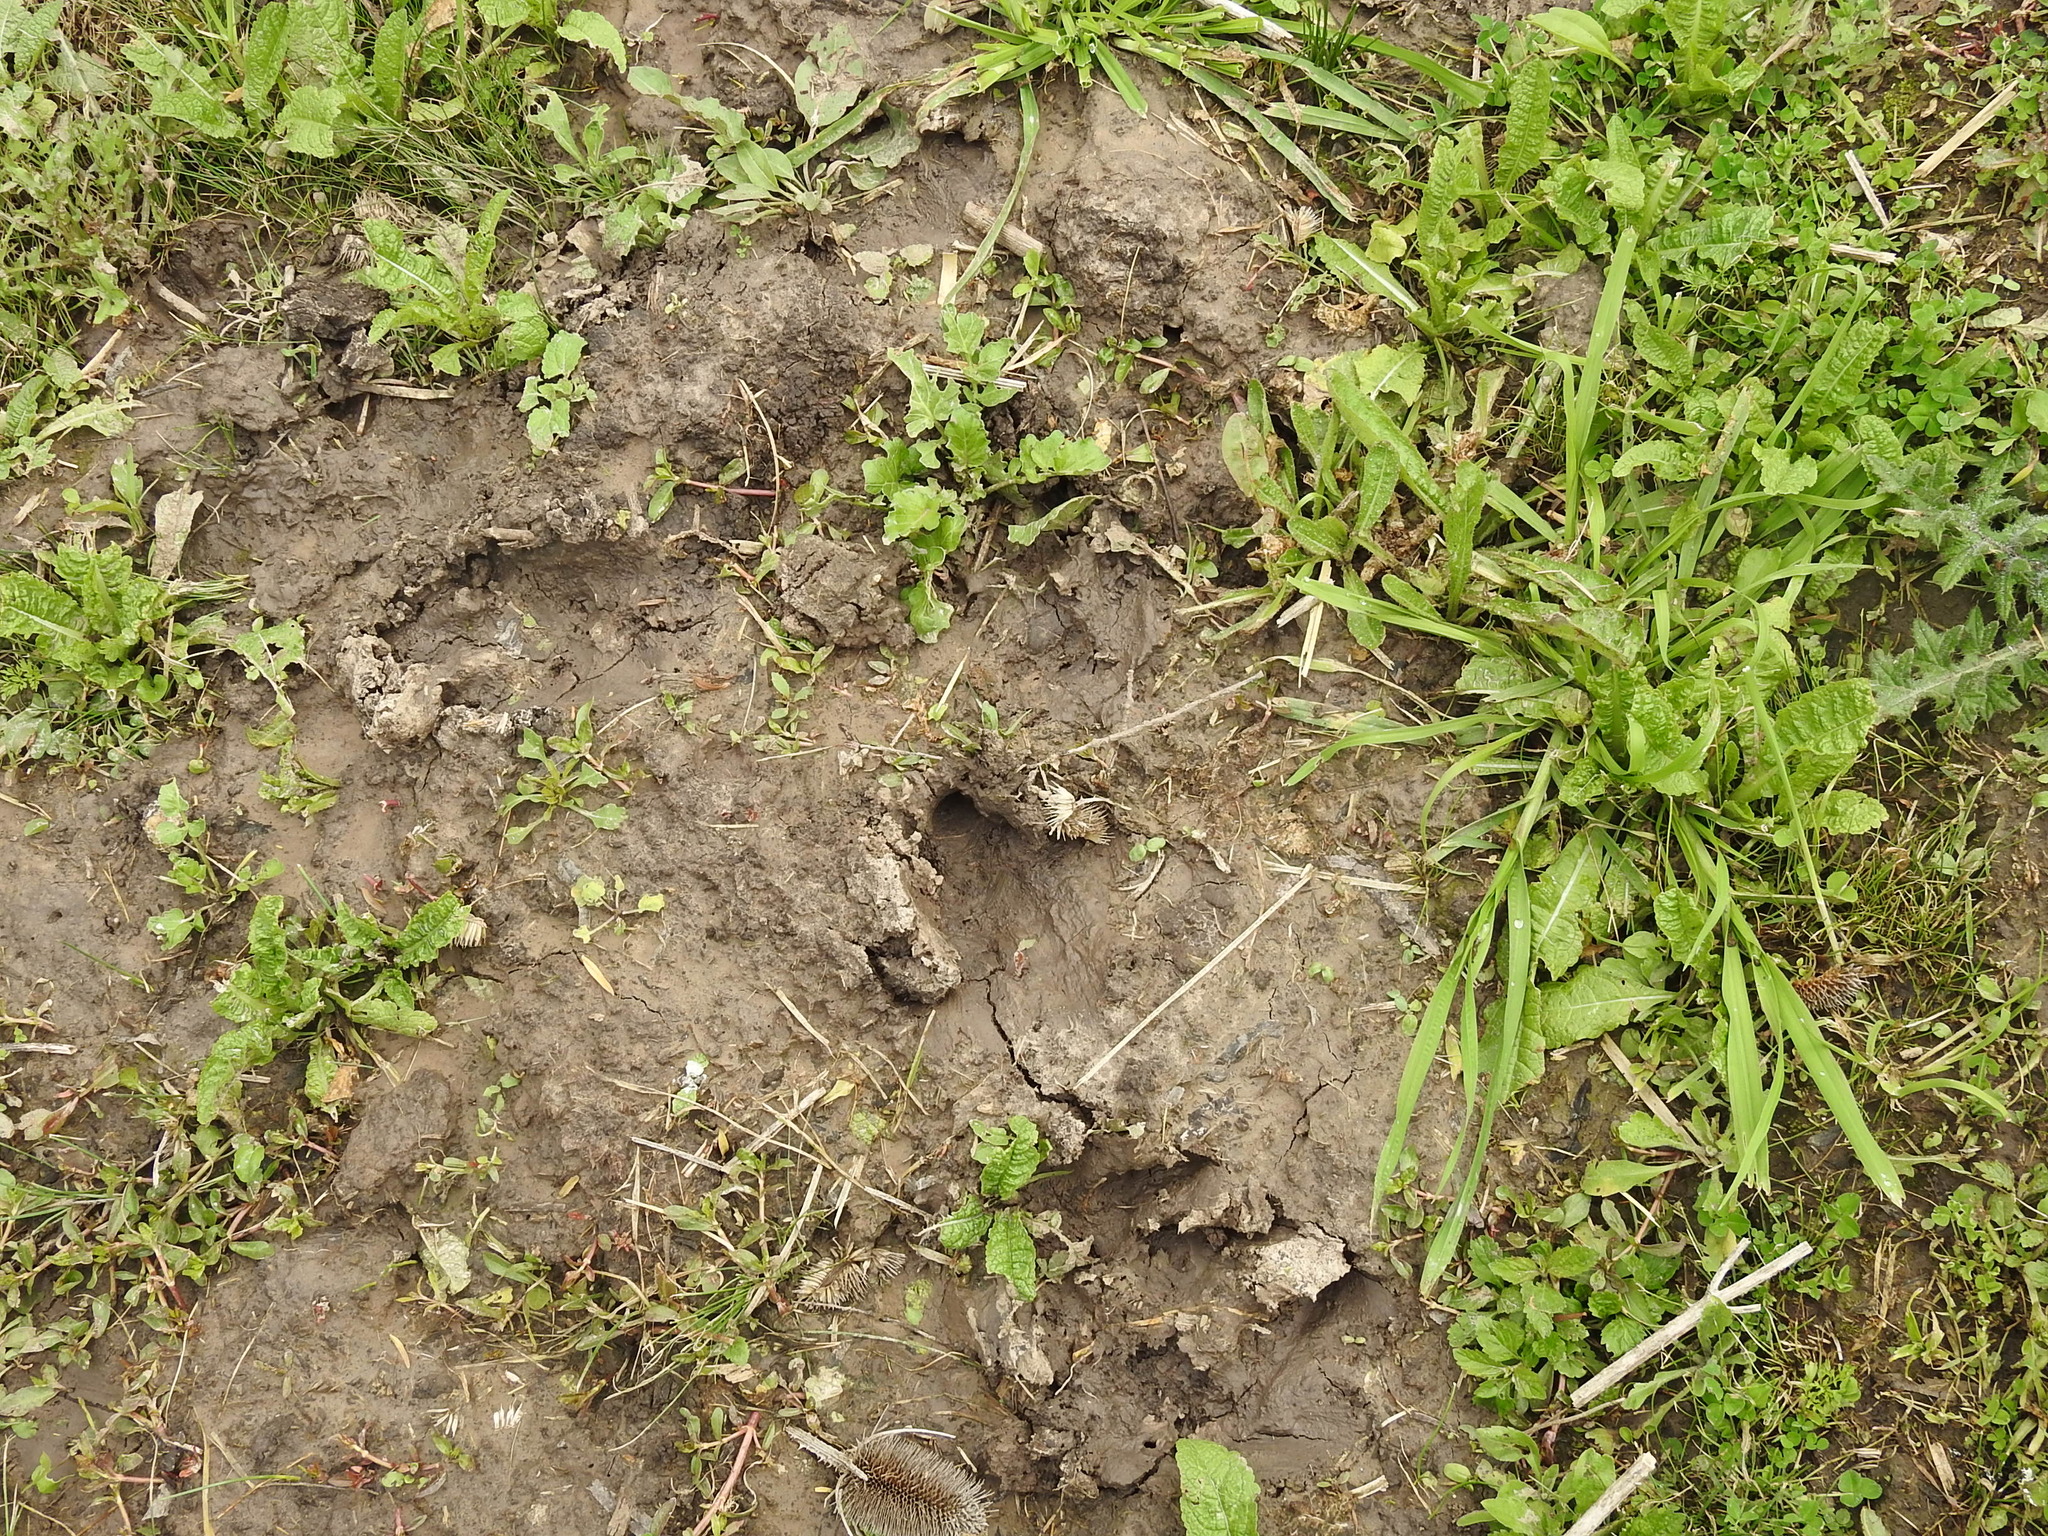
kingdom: Animalia
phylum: Chordata
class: Mammalia
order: Rodentia
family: Caviidae
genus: Hydrochoerus
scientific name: Hydrochoerus hydrochaeris
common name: Capybara
